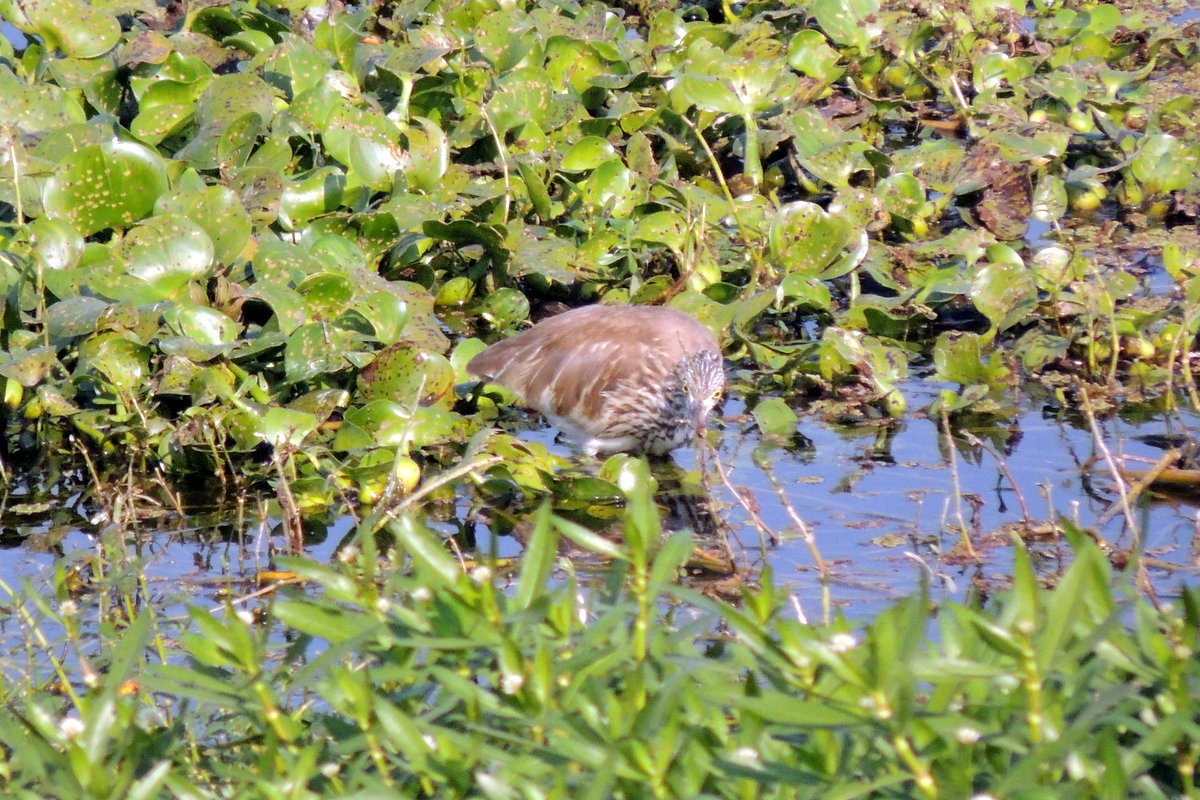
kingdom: Animalia
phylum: Chordata
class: Aves
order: Pelecaniformes
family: Ardeidae
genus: Ardeola
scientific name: Ardeola grayii
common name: Indian pond heron
